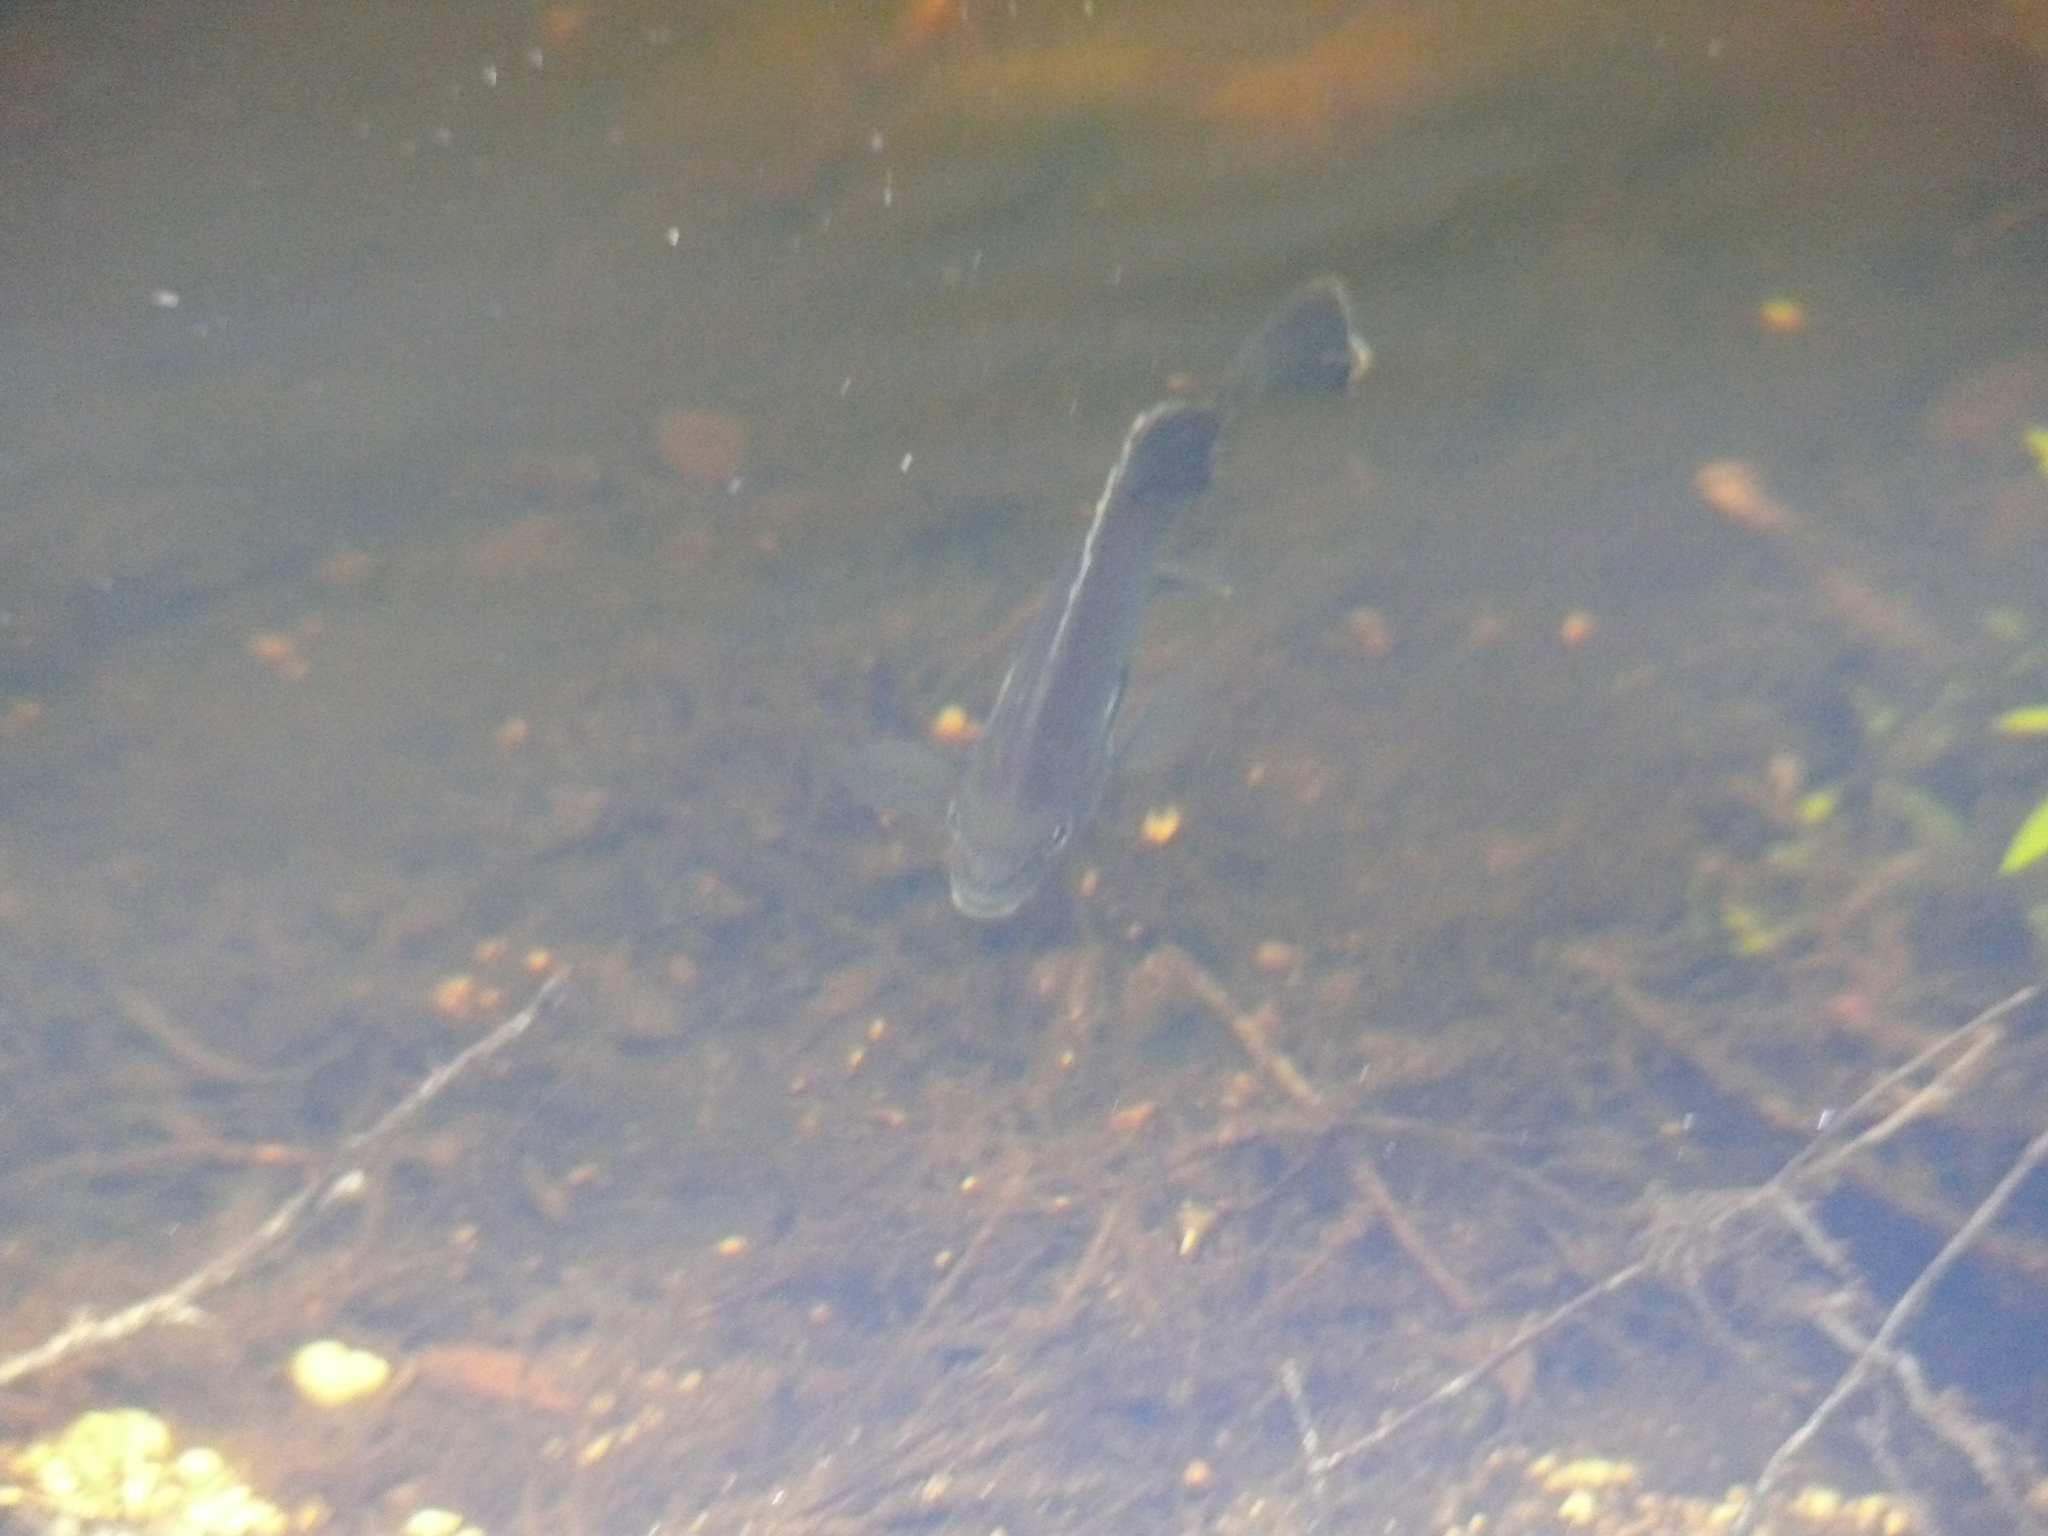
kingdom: Animalia
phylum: Chordata
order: Perciformes
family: Centrarchidae
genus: Lepomis
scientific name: Lepomis macrochirus
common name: Bluegill
